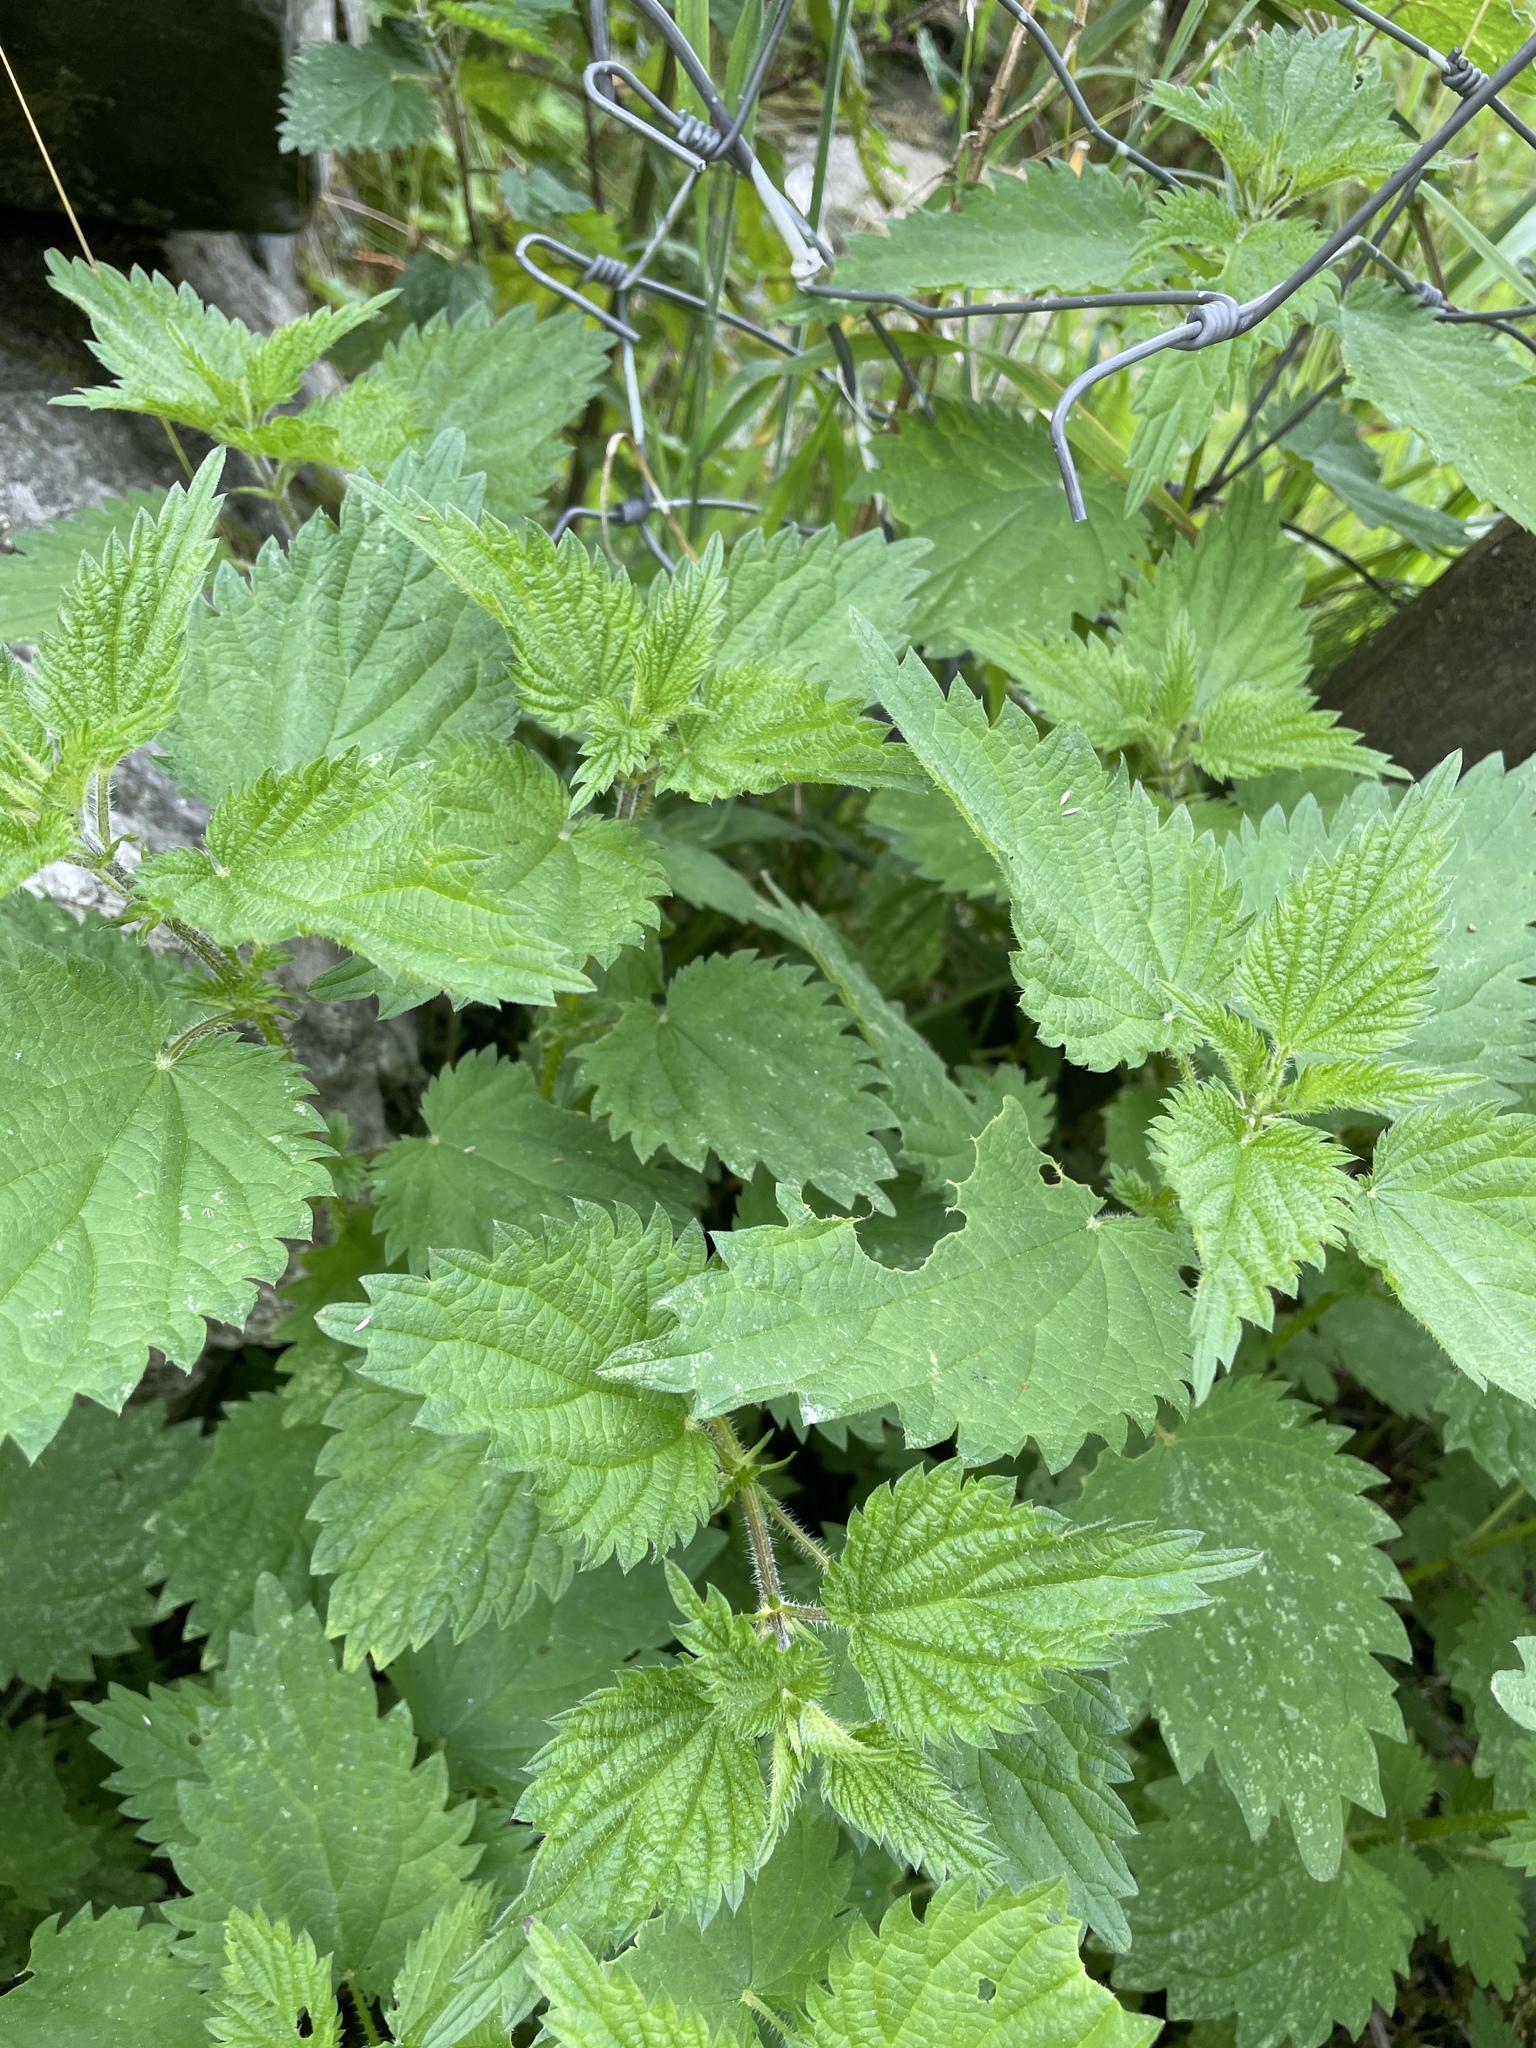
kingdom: Plantae
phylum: Tracheophyta
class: Magnoliopsida
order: Rosales
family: Urticaceae
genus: Urtica
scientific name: Urtica dioica
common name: Common nettle
